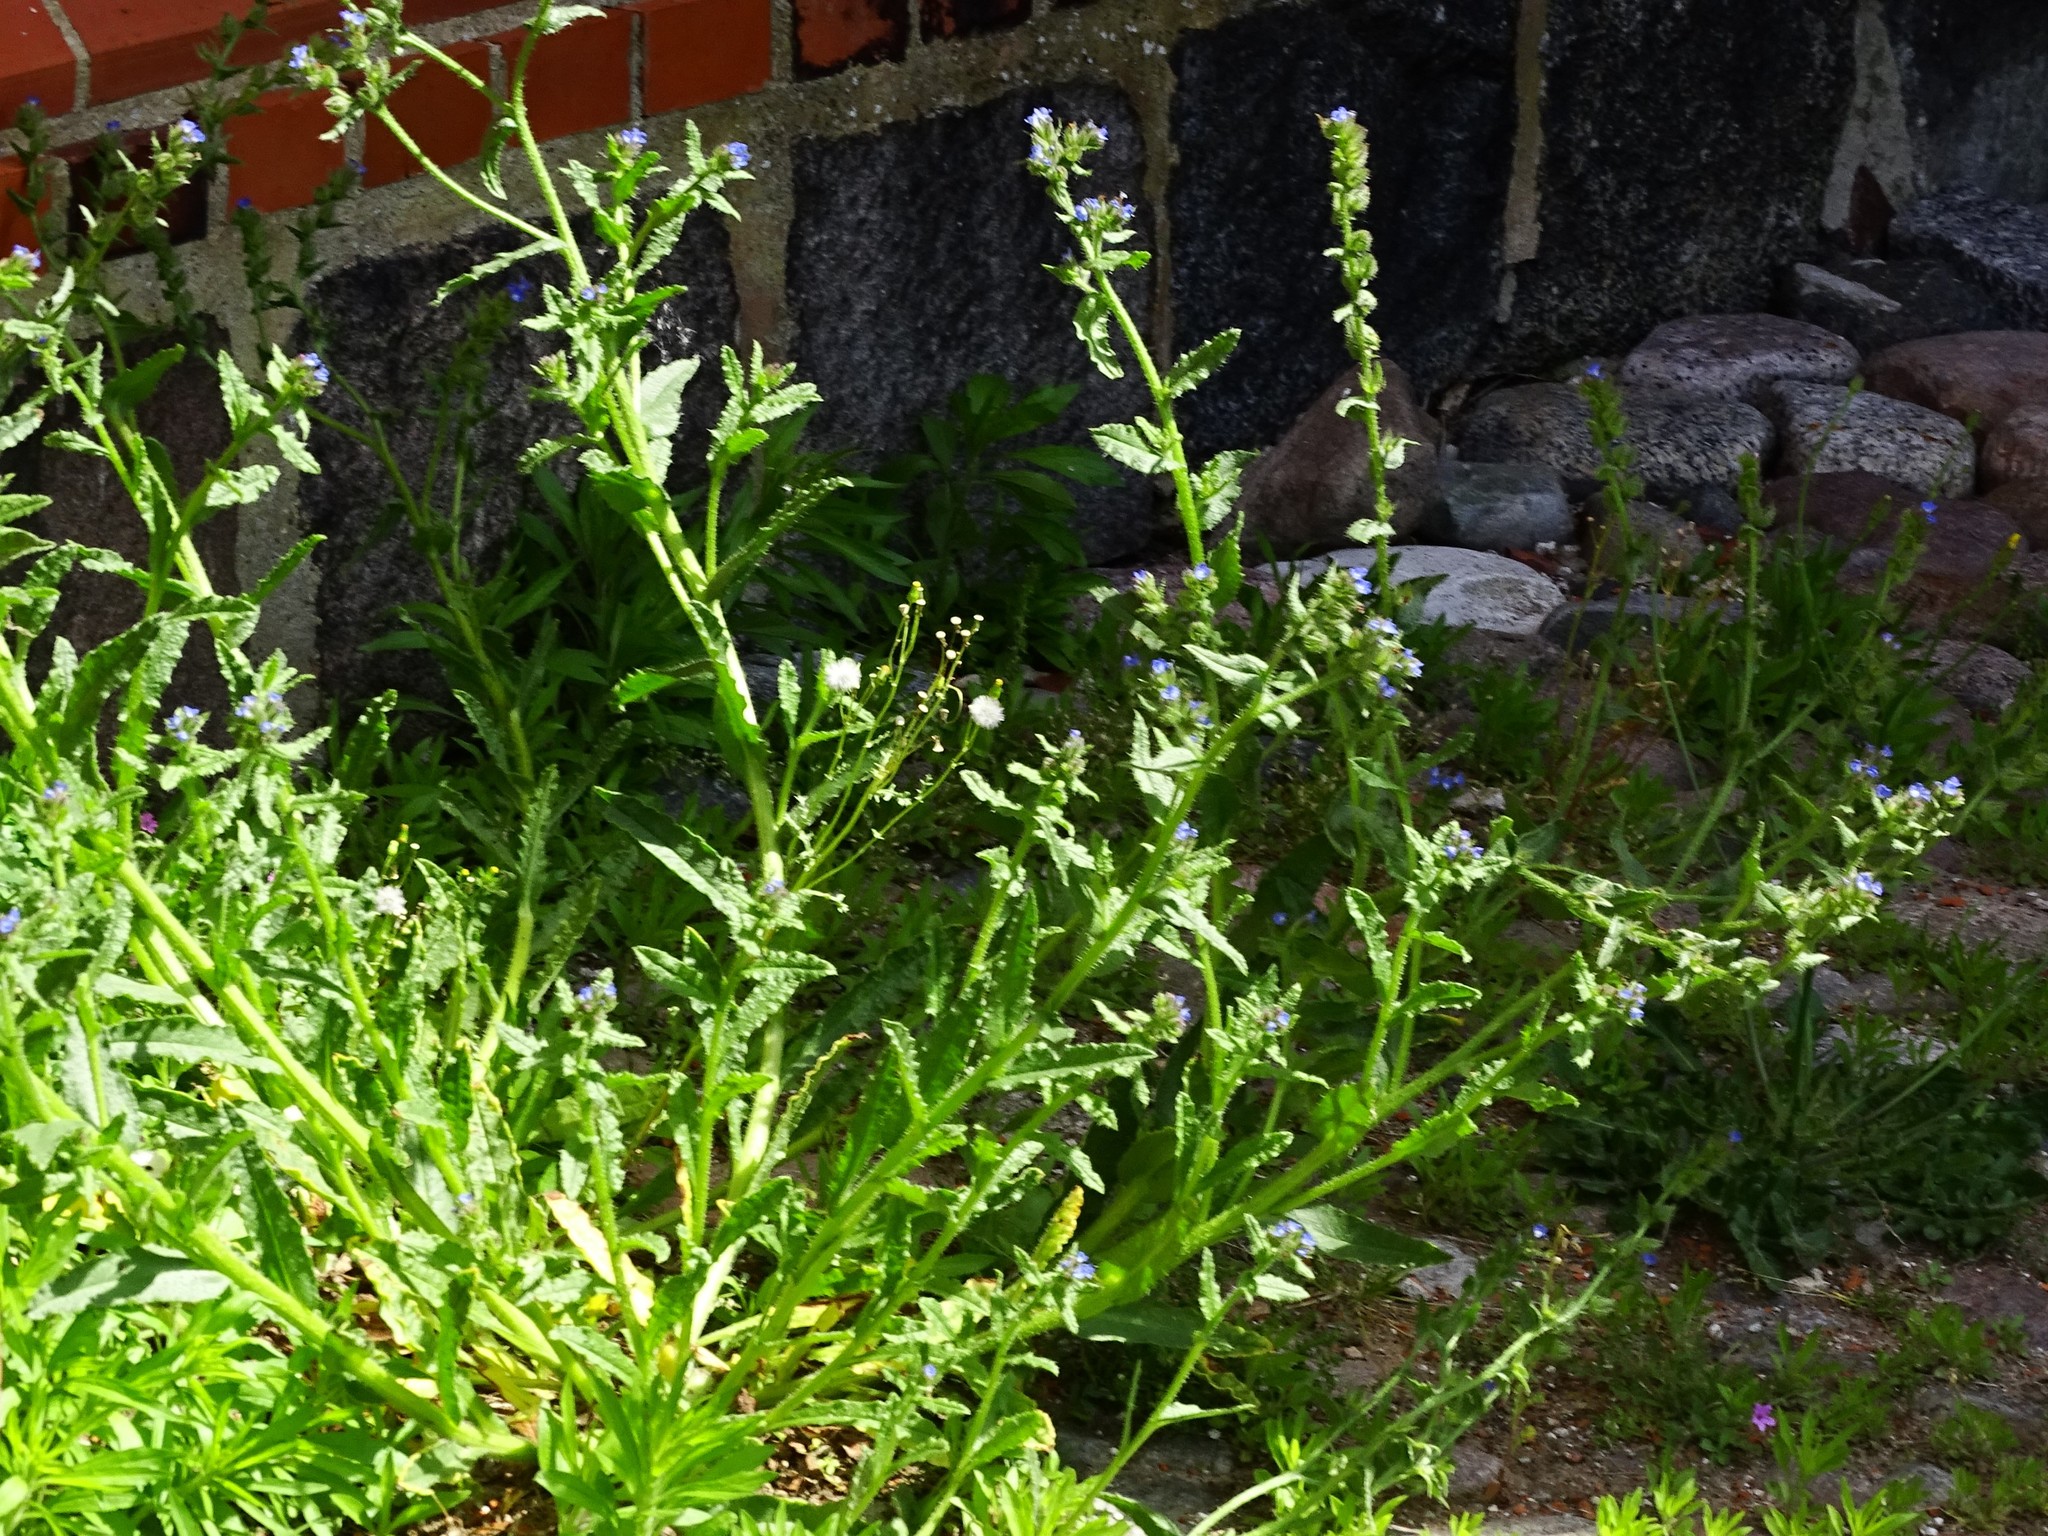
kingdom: Plantae
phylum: Tracheophyta
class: Magnoliopsida
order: Boraginales
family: Boraginaceae
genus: Lycopsis
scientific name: Lycopsis arvensis
